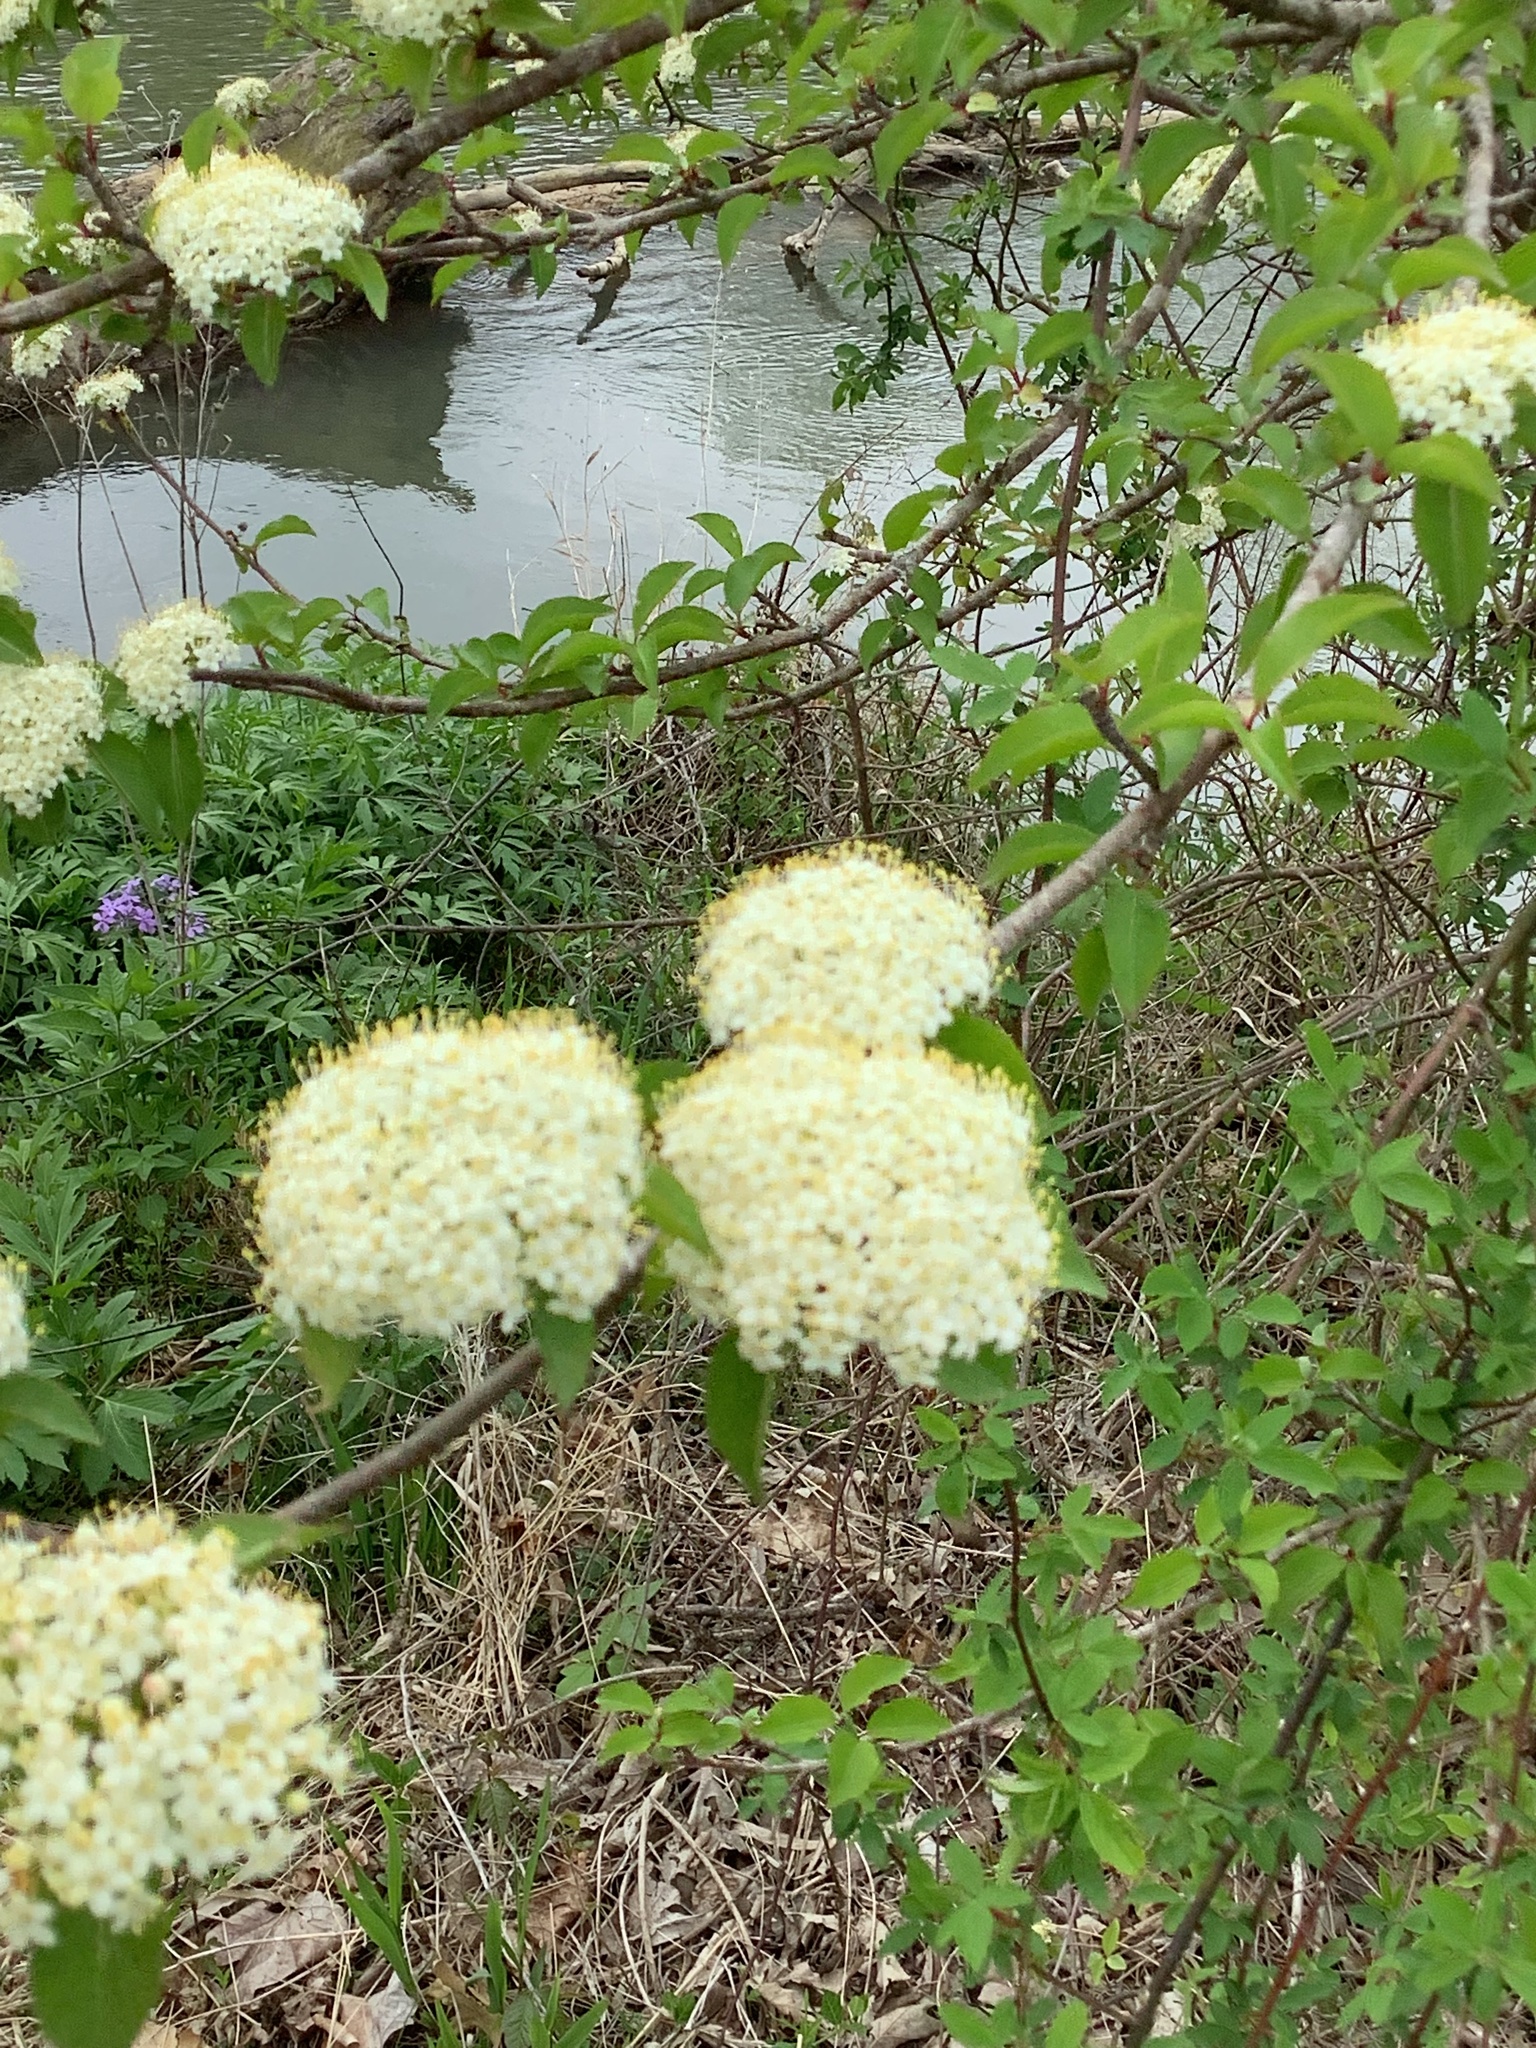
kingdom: Plantae
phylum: Tracheophyta
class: Magnoliopsida
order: Dipsacales
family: Viburnaceae
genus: Viburnum
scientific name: Viburnum prunifolium
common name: Black haw
